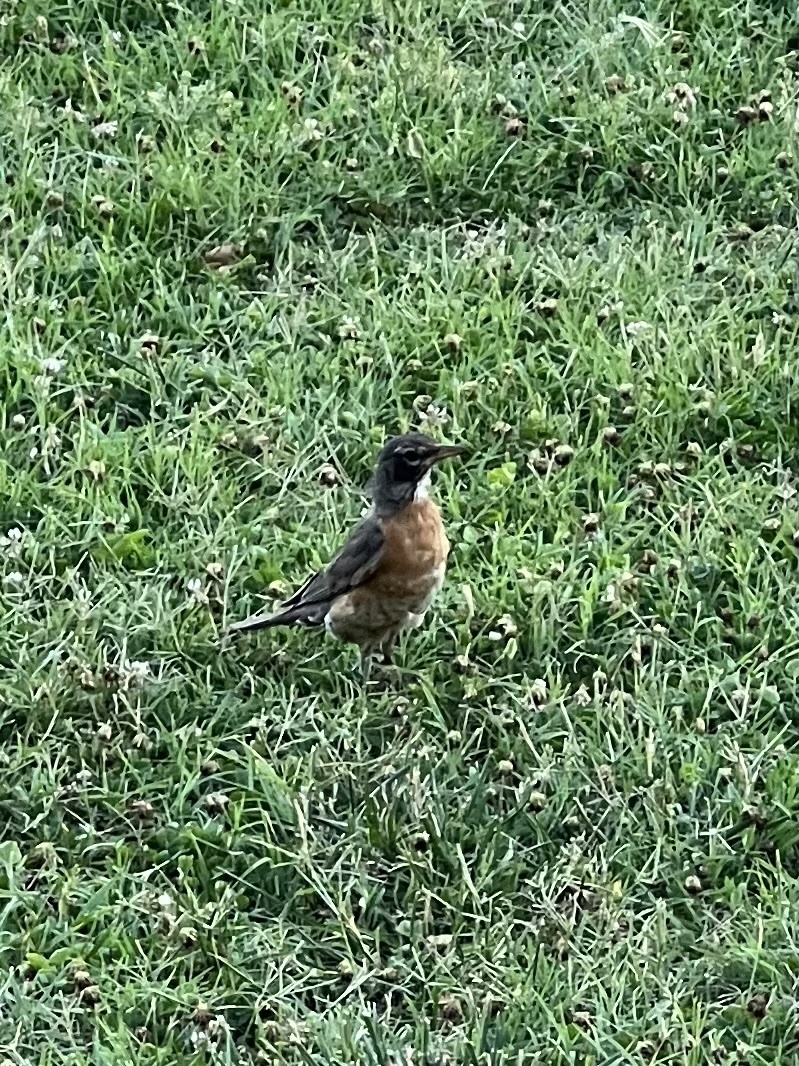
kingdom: Animalia
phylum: Chordata
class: Aves
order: Passeriformes
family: Turdidae
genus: Turdus
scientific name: Turdus migratorius
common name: American robin
